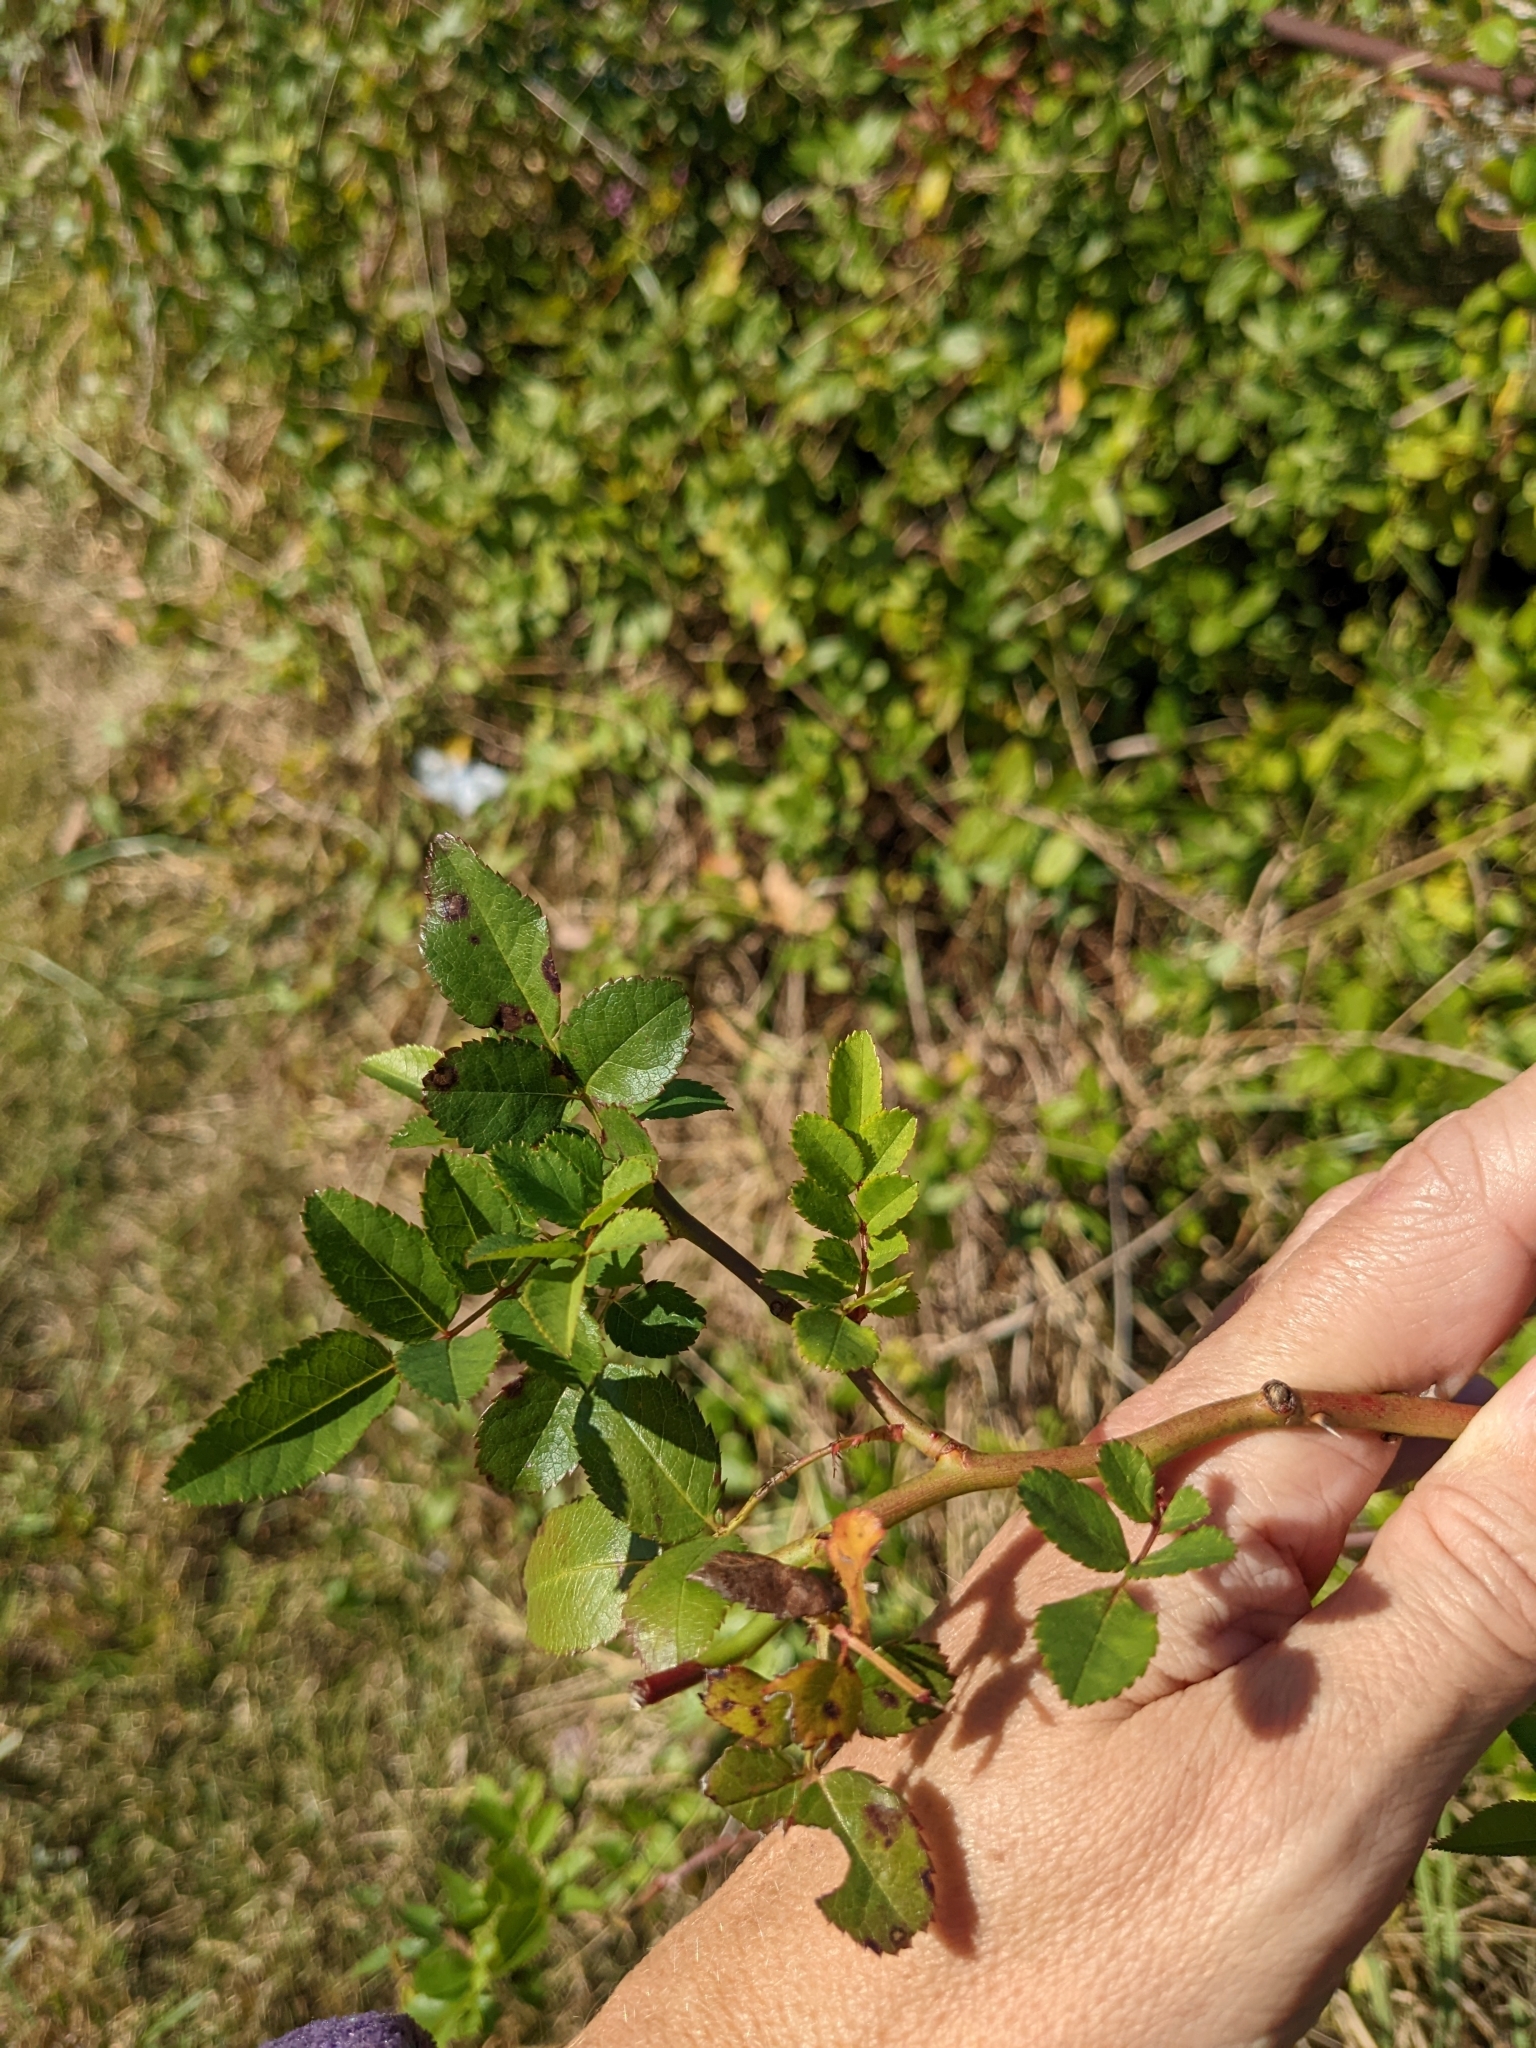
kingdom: Plantae
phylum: Tracheophyta
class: Magnoliopsida
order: Rosales
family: Rosaceae
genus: Rosa
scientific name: Rosa multiflora
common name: Multiflora rose
